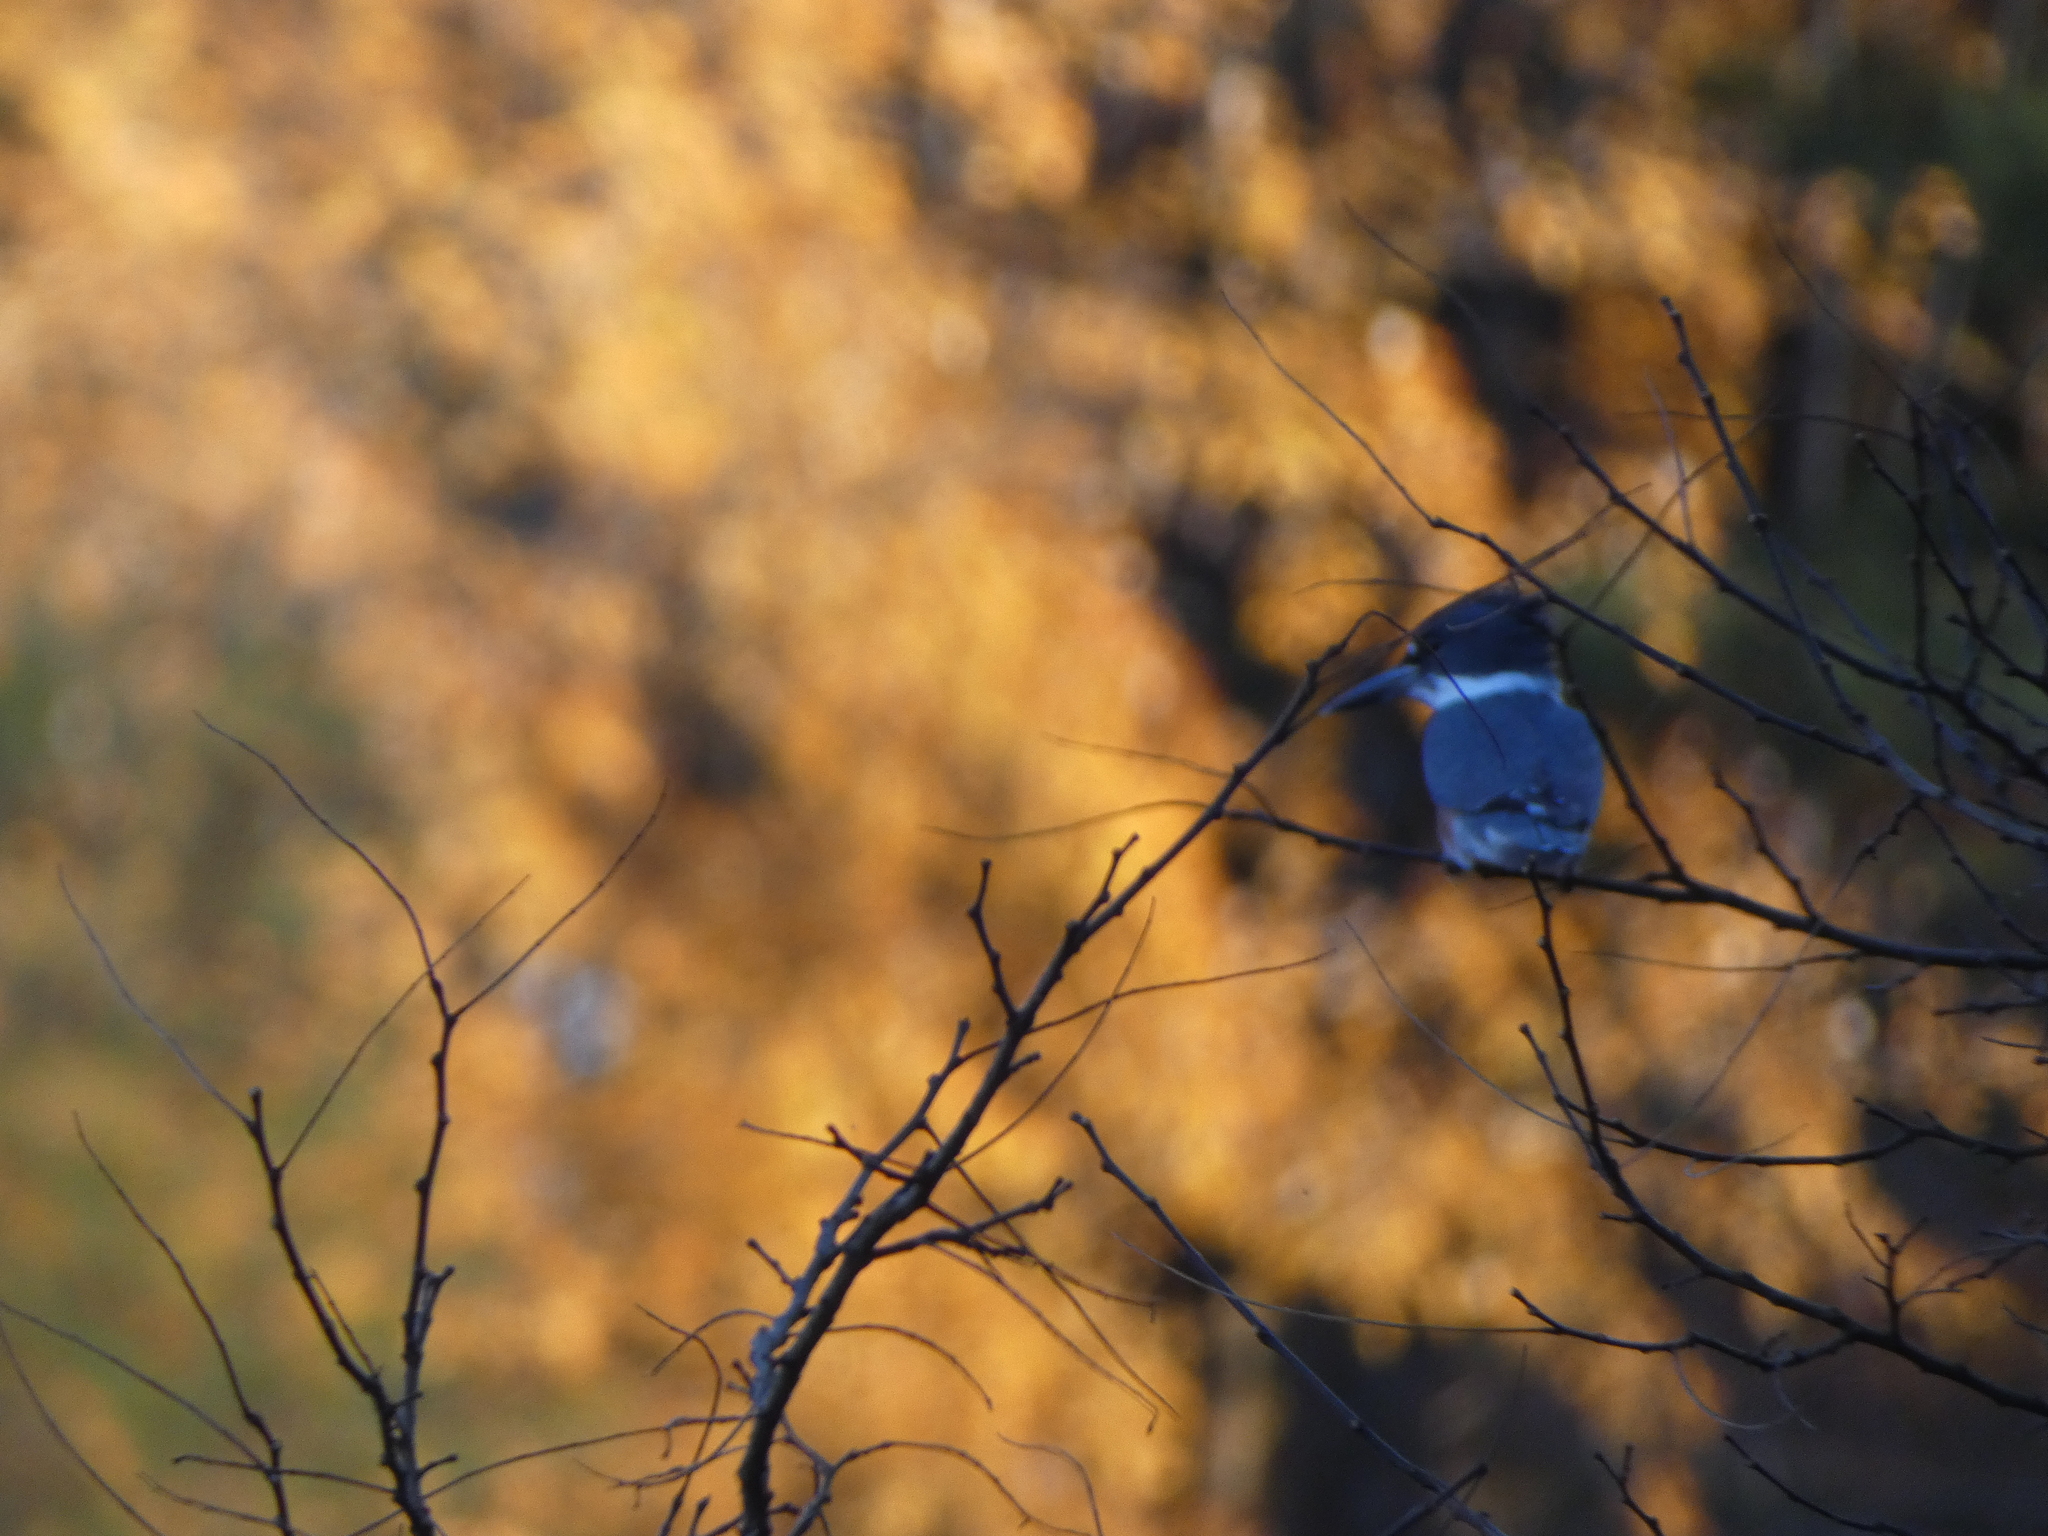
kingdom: Animalia
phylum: Chordata
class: Aves
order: Coraciiformes
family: Alcedinidae
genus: Megaceryle
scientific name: Megaceryle alcyon
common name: Belted kingfisher
